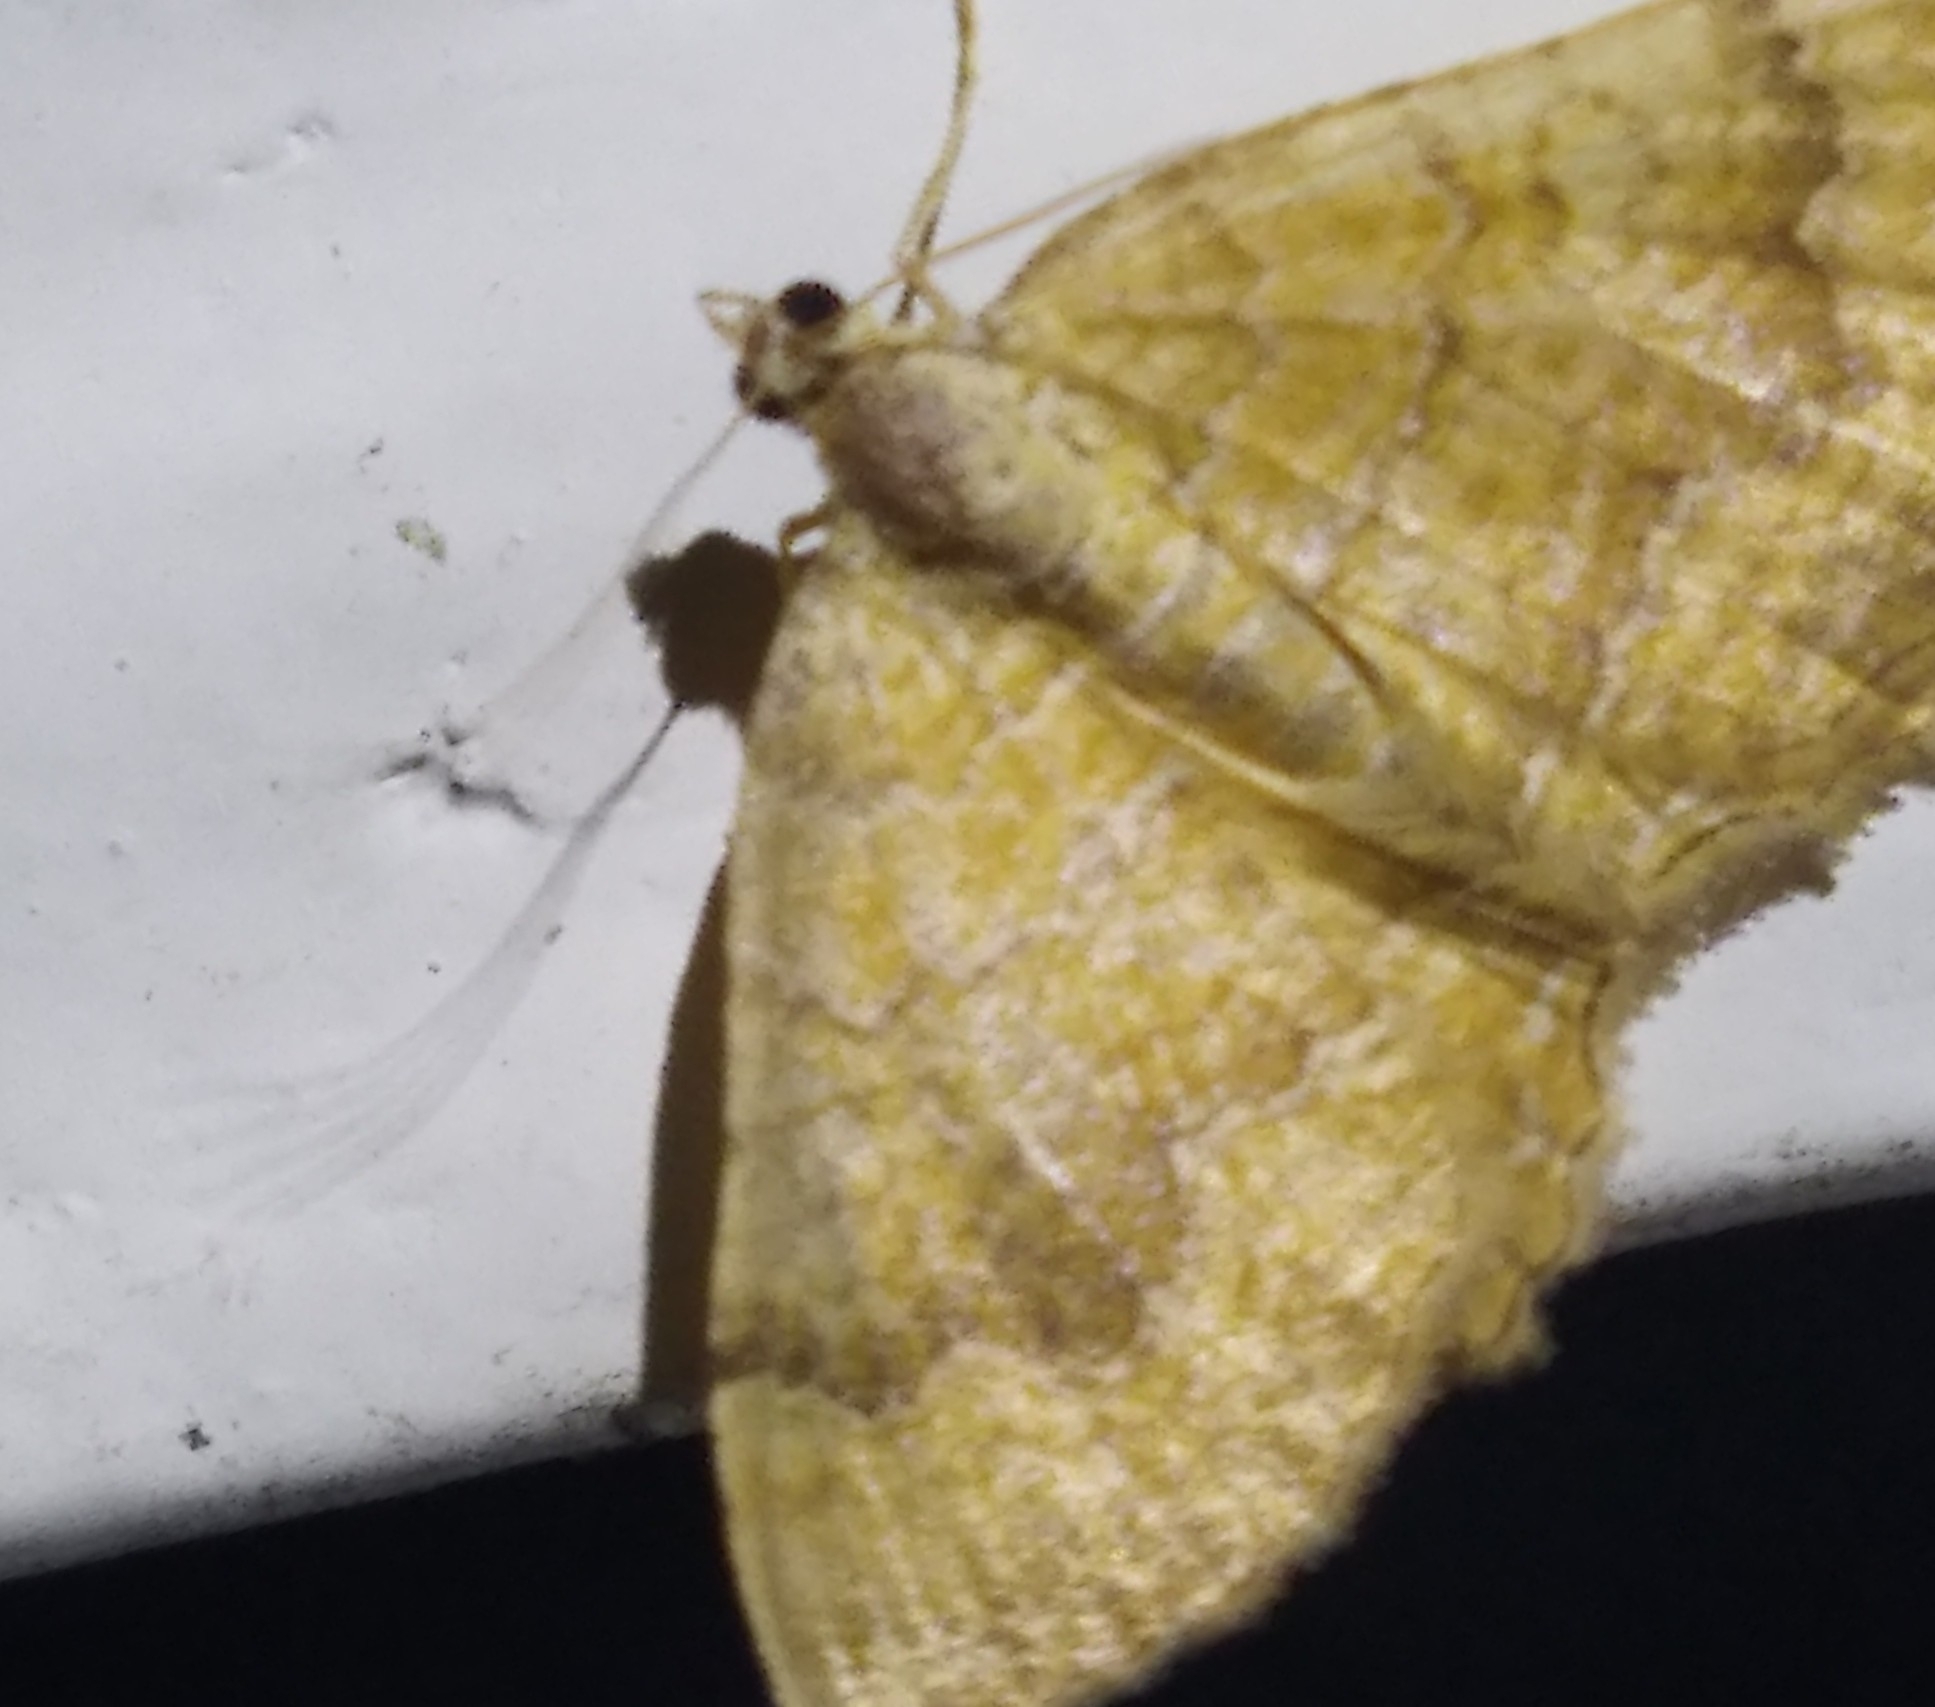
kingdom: Animalia
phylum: Arthropoda
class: Insecta
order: Lepidoptera
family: Geometridae
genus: Camptogramma
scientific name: Camptogramma bilineata
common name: Yellow shell
